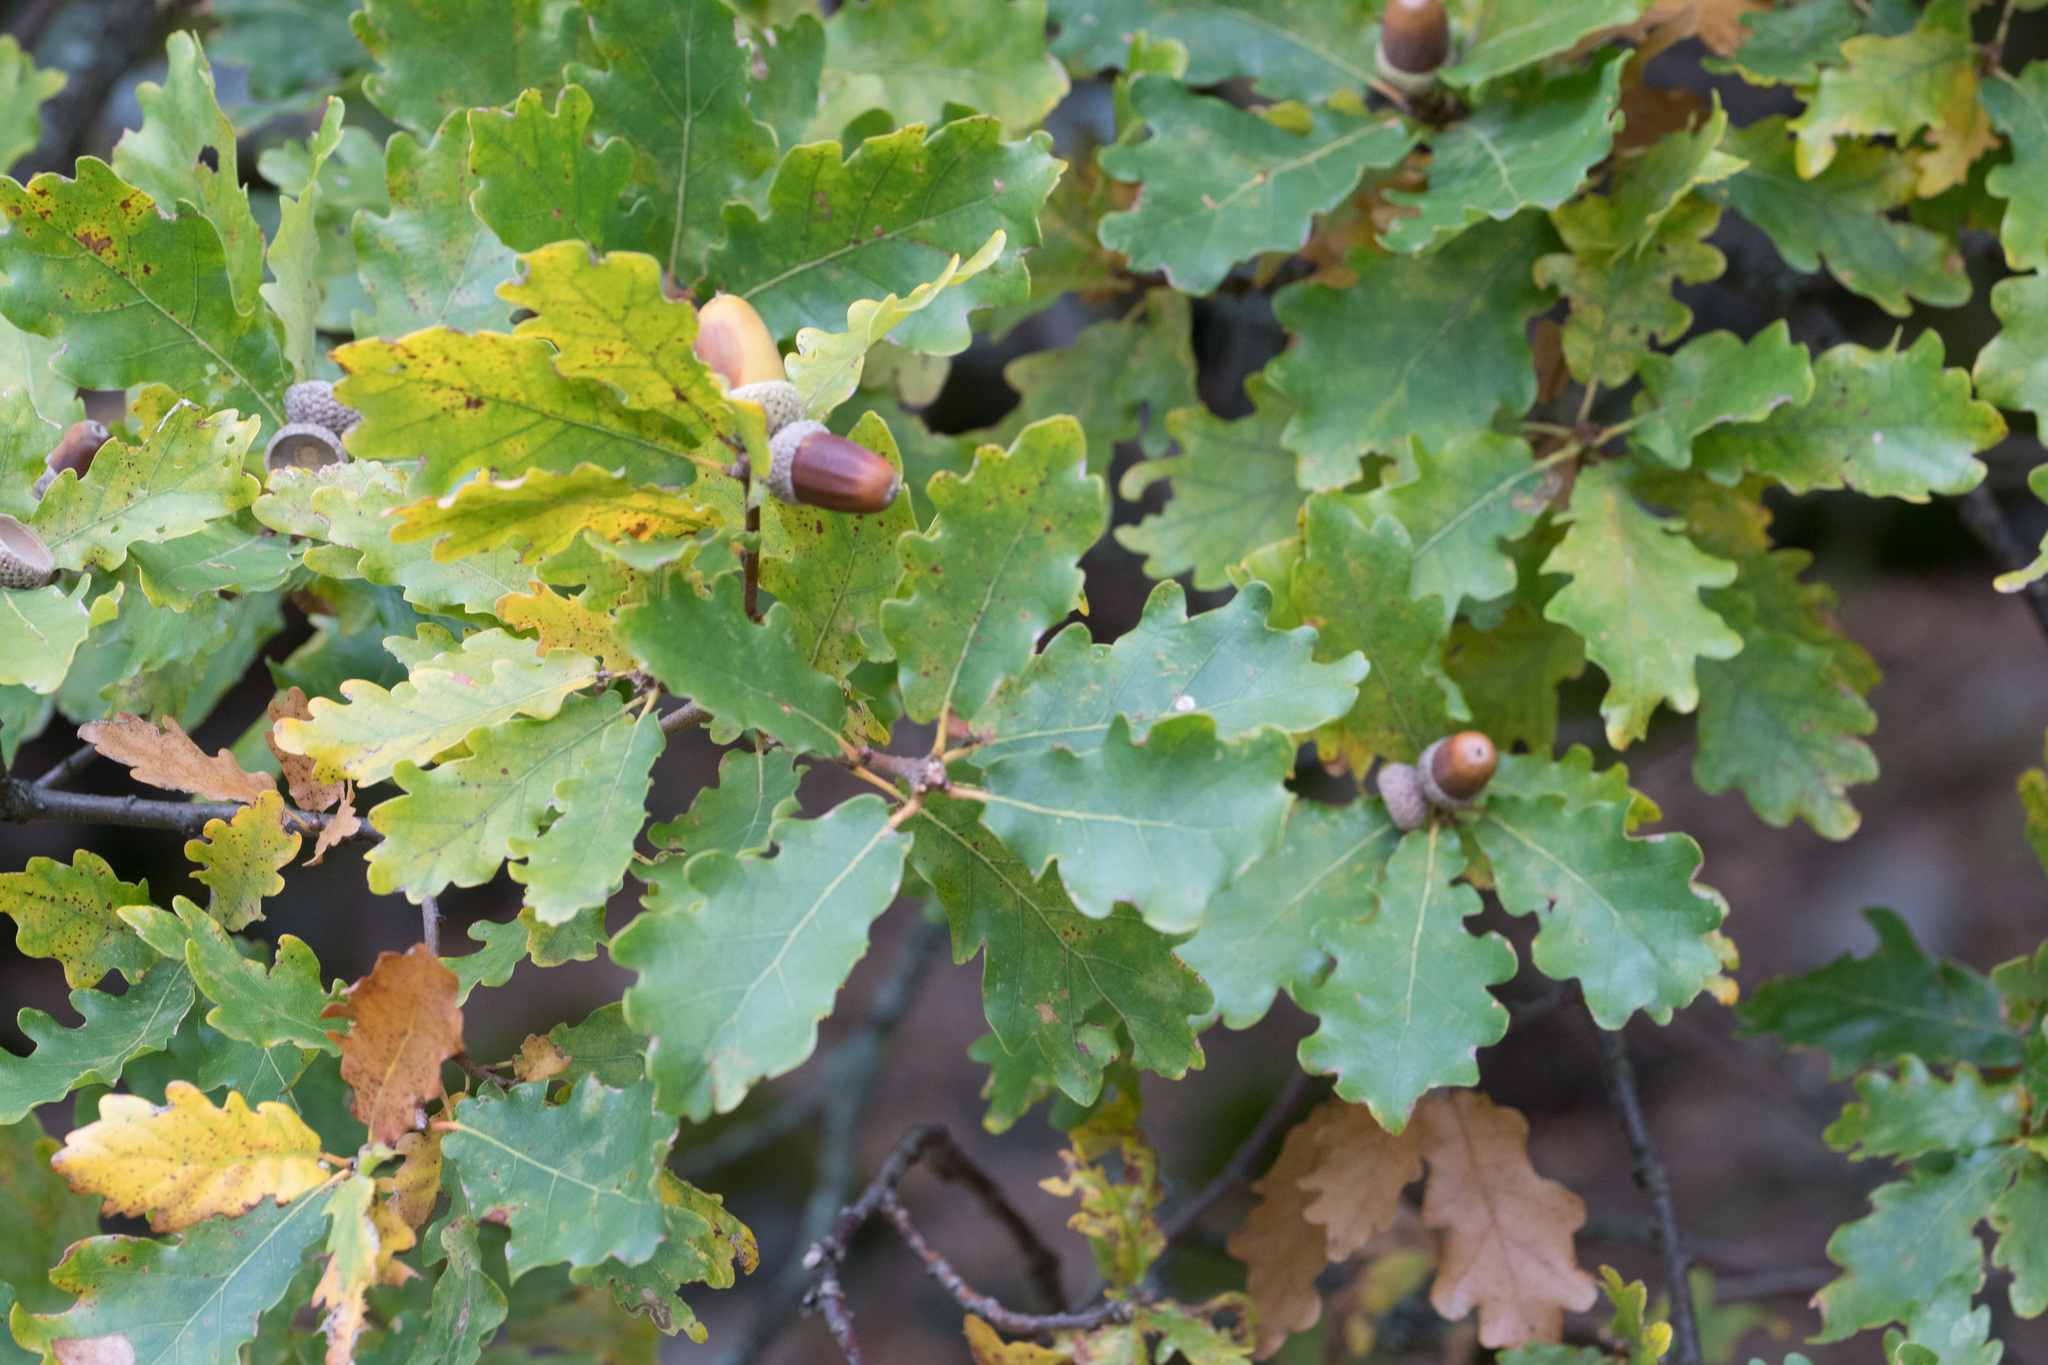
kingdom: Plantae
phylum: Tracheophyta
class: Magnoliopsida
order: Fagales
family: Fagaceae
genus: Quercus
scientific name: Quercus petraea
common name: Sessile oak
